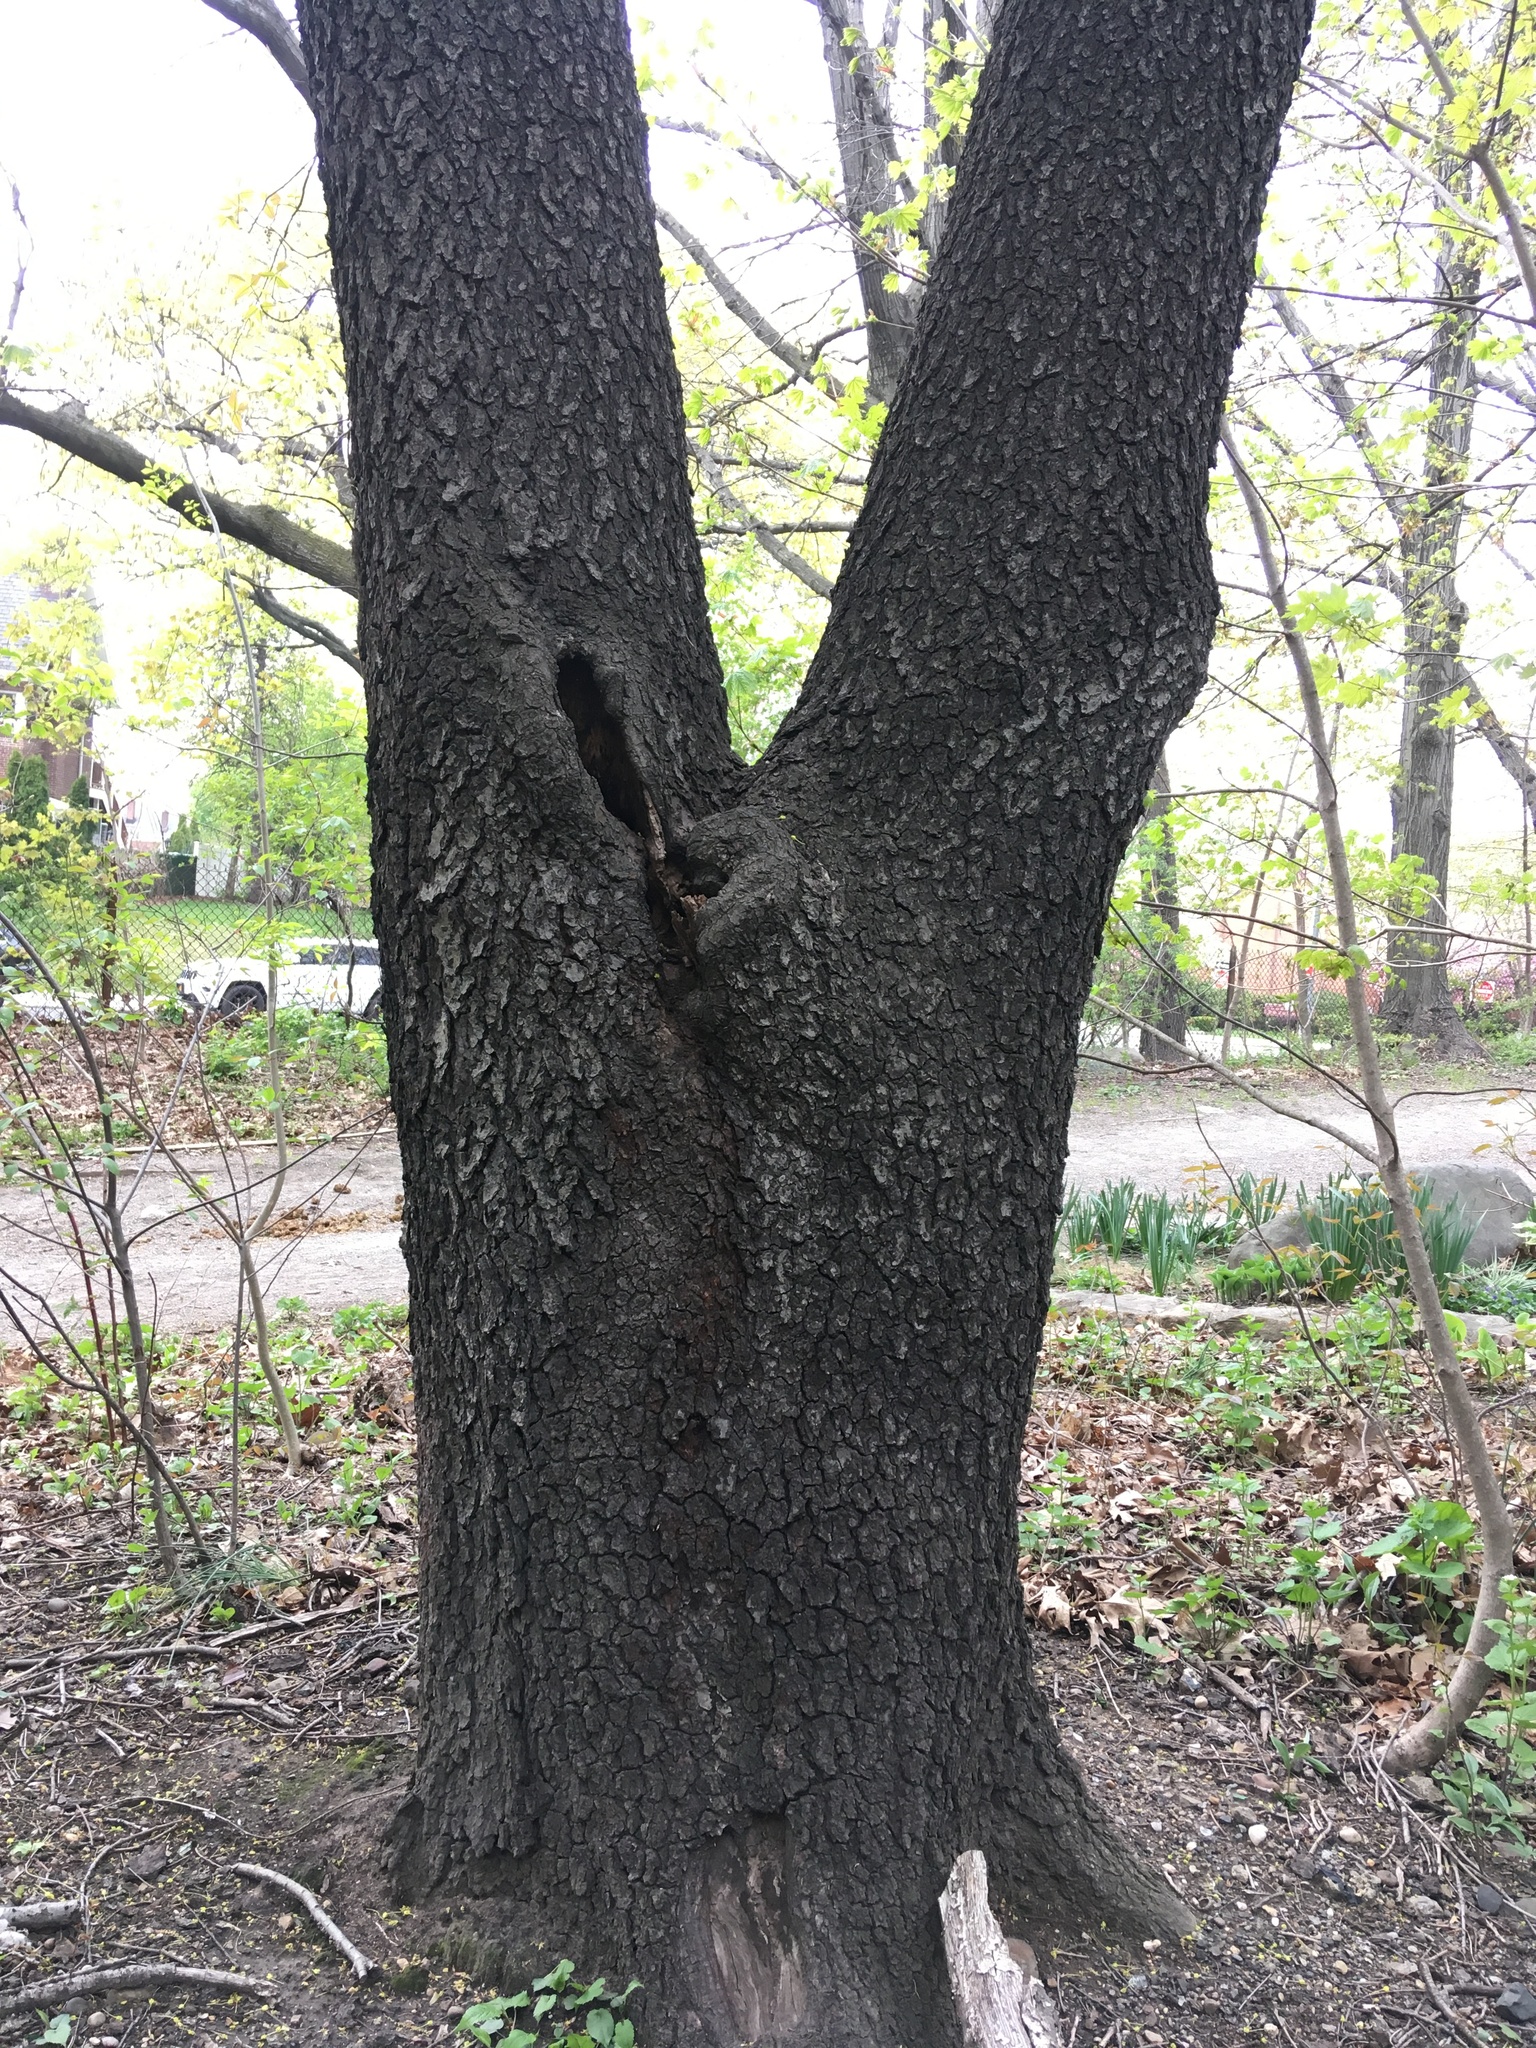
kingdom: Plantae
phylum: Tracheophyta
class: Magnoliopsida
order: Rosales
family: Rosaceae
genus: Prunus
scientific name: Prunus serotina
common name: Black cherry
